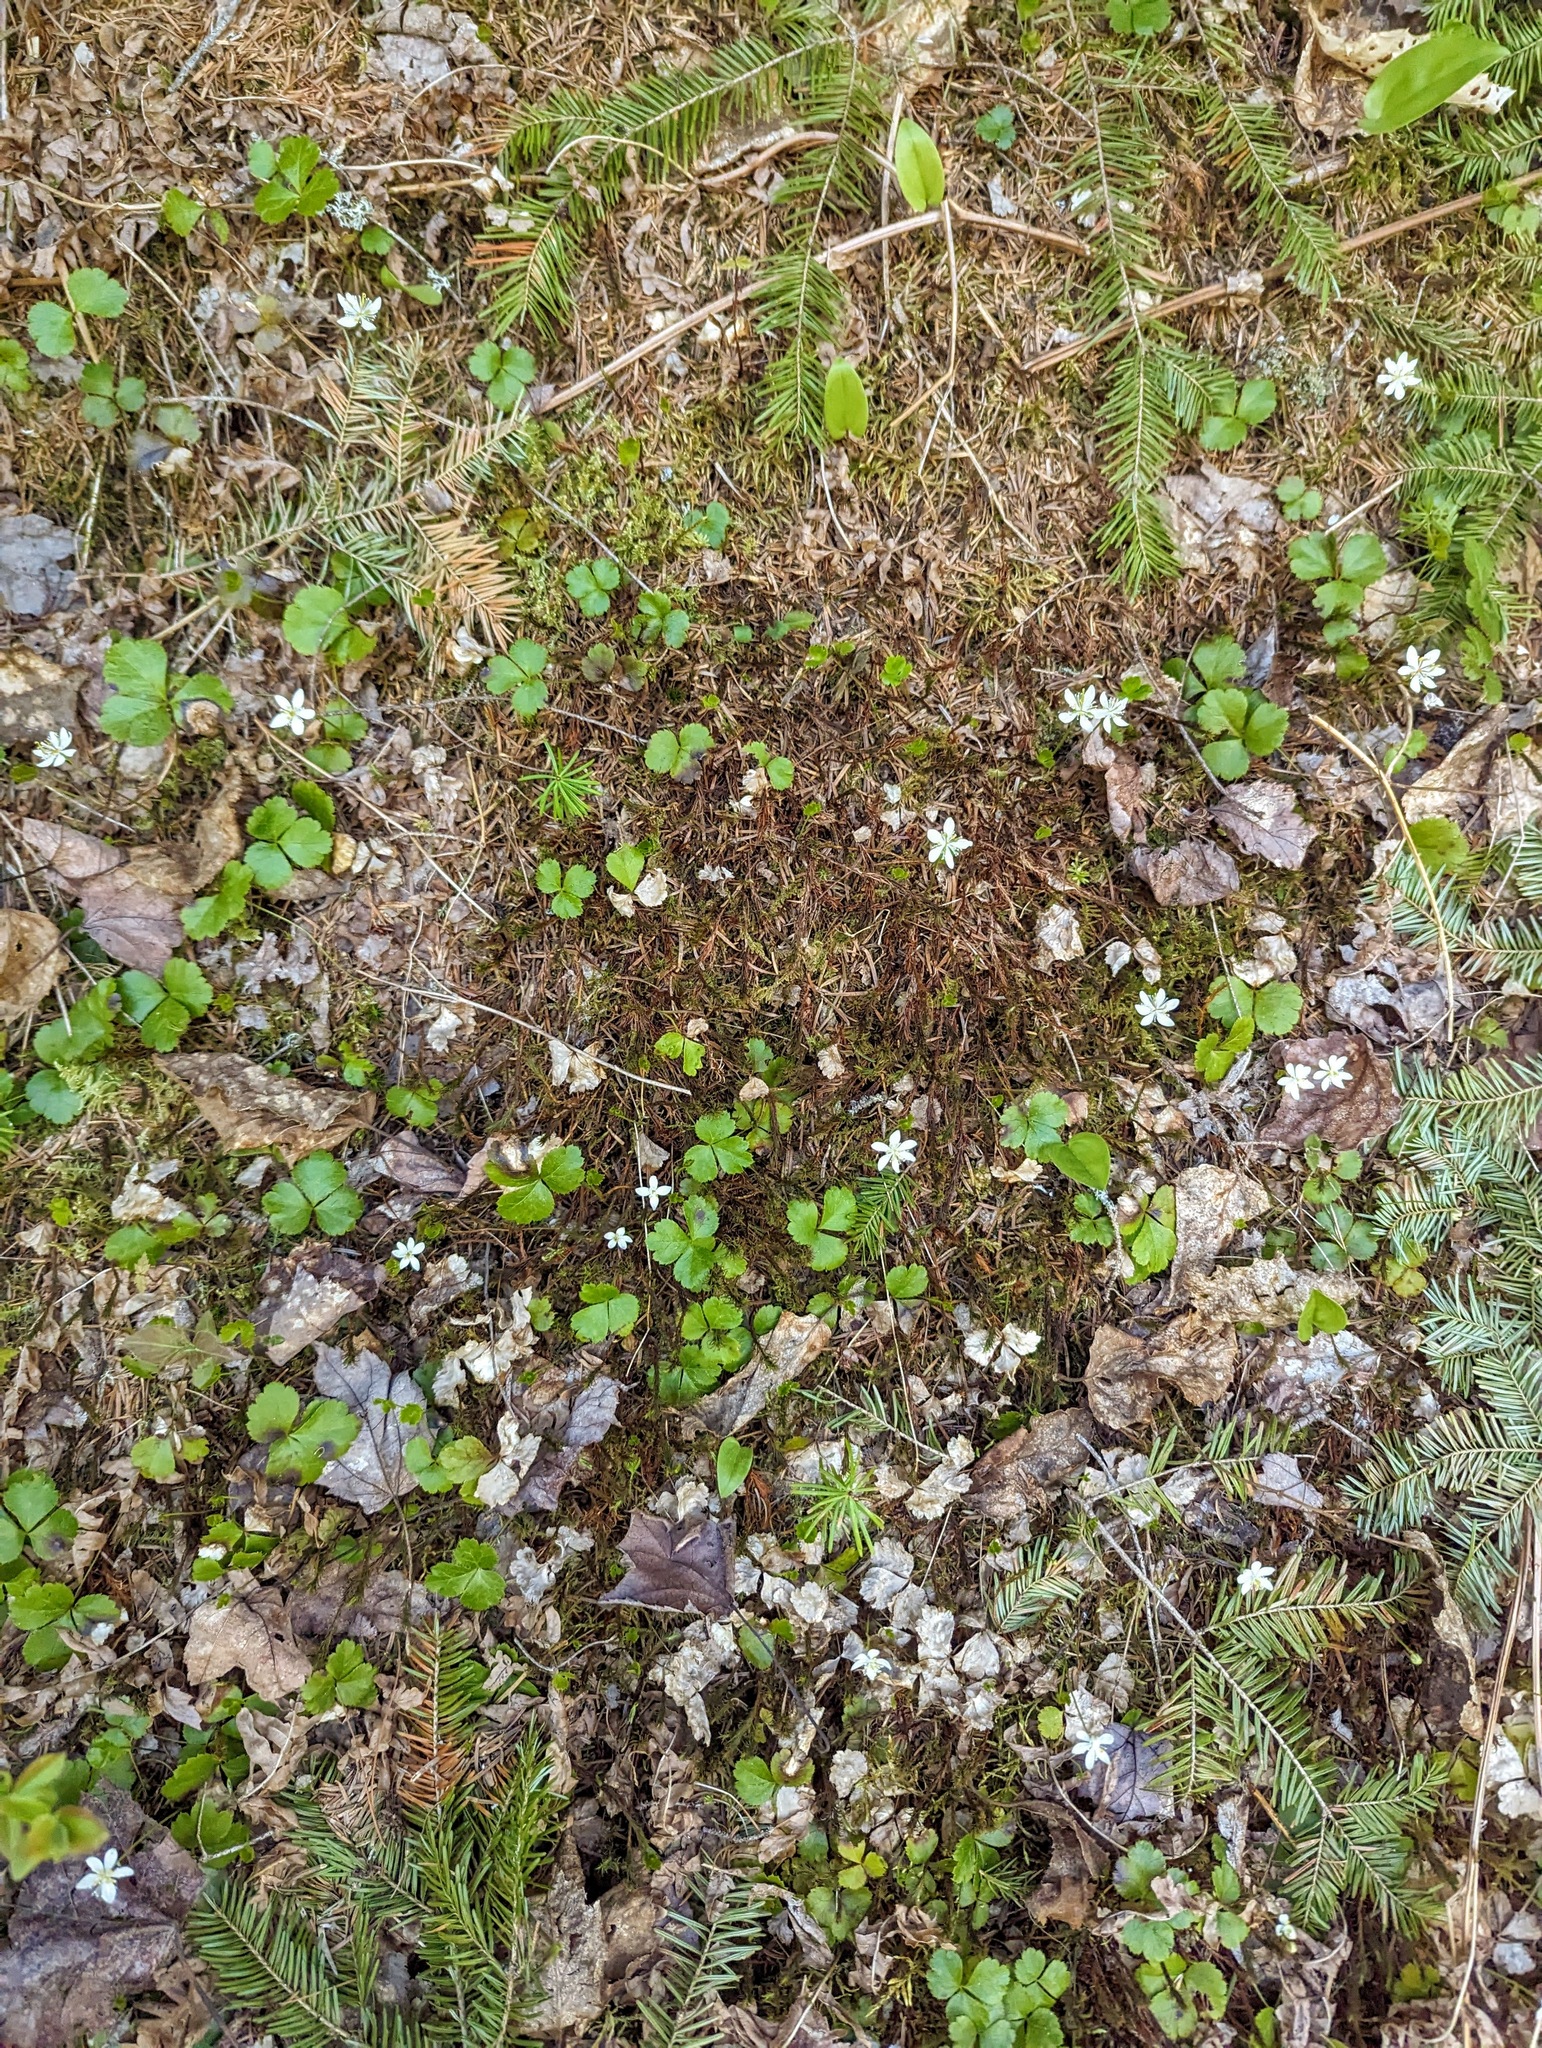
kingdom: Plantae
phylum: Tracheophyta
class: Magnoliopsida
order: Ranunculales
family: Ranunculaceae
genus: Coptis
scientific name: Coptis trifolia
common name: Canker-root
